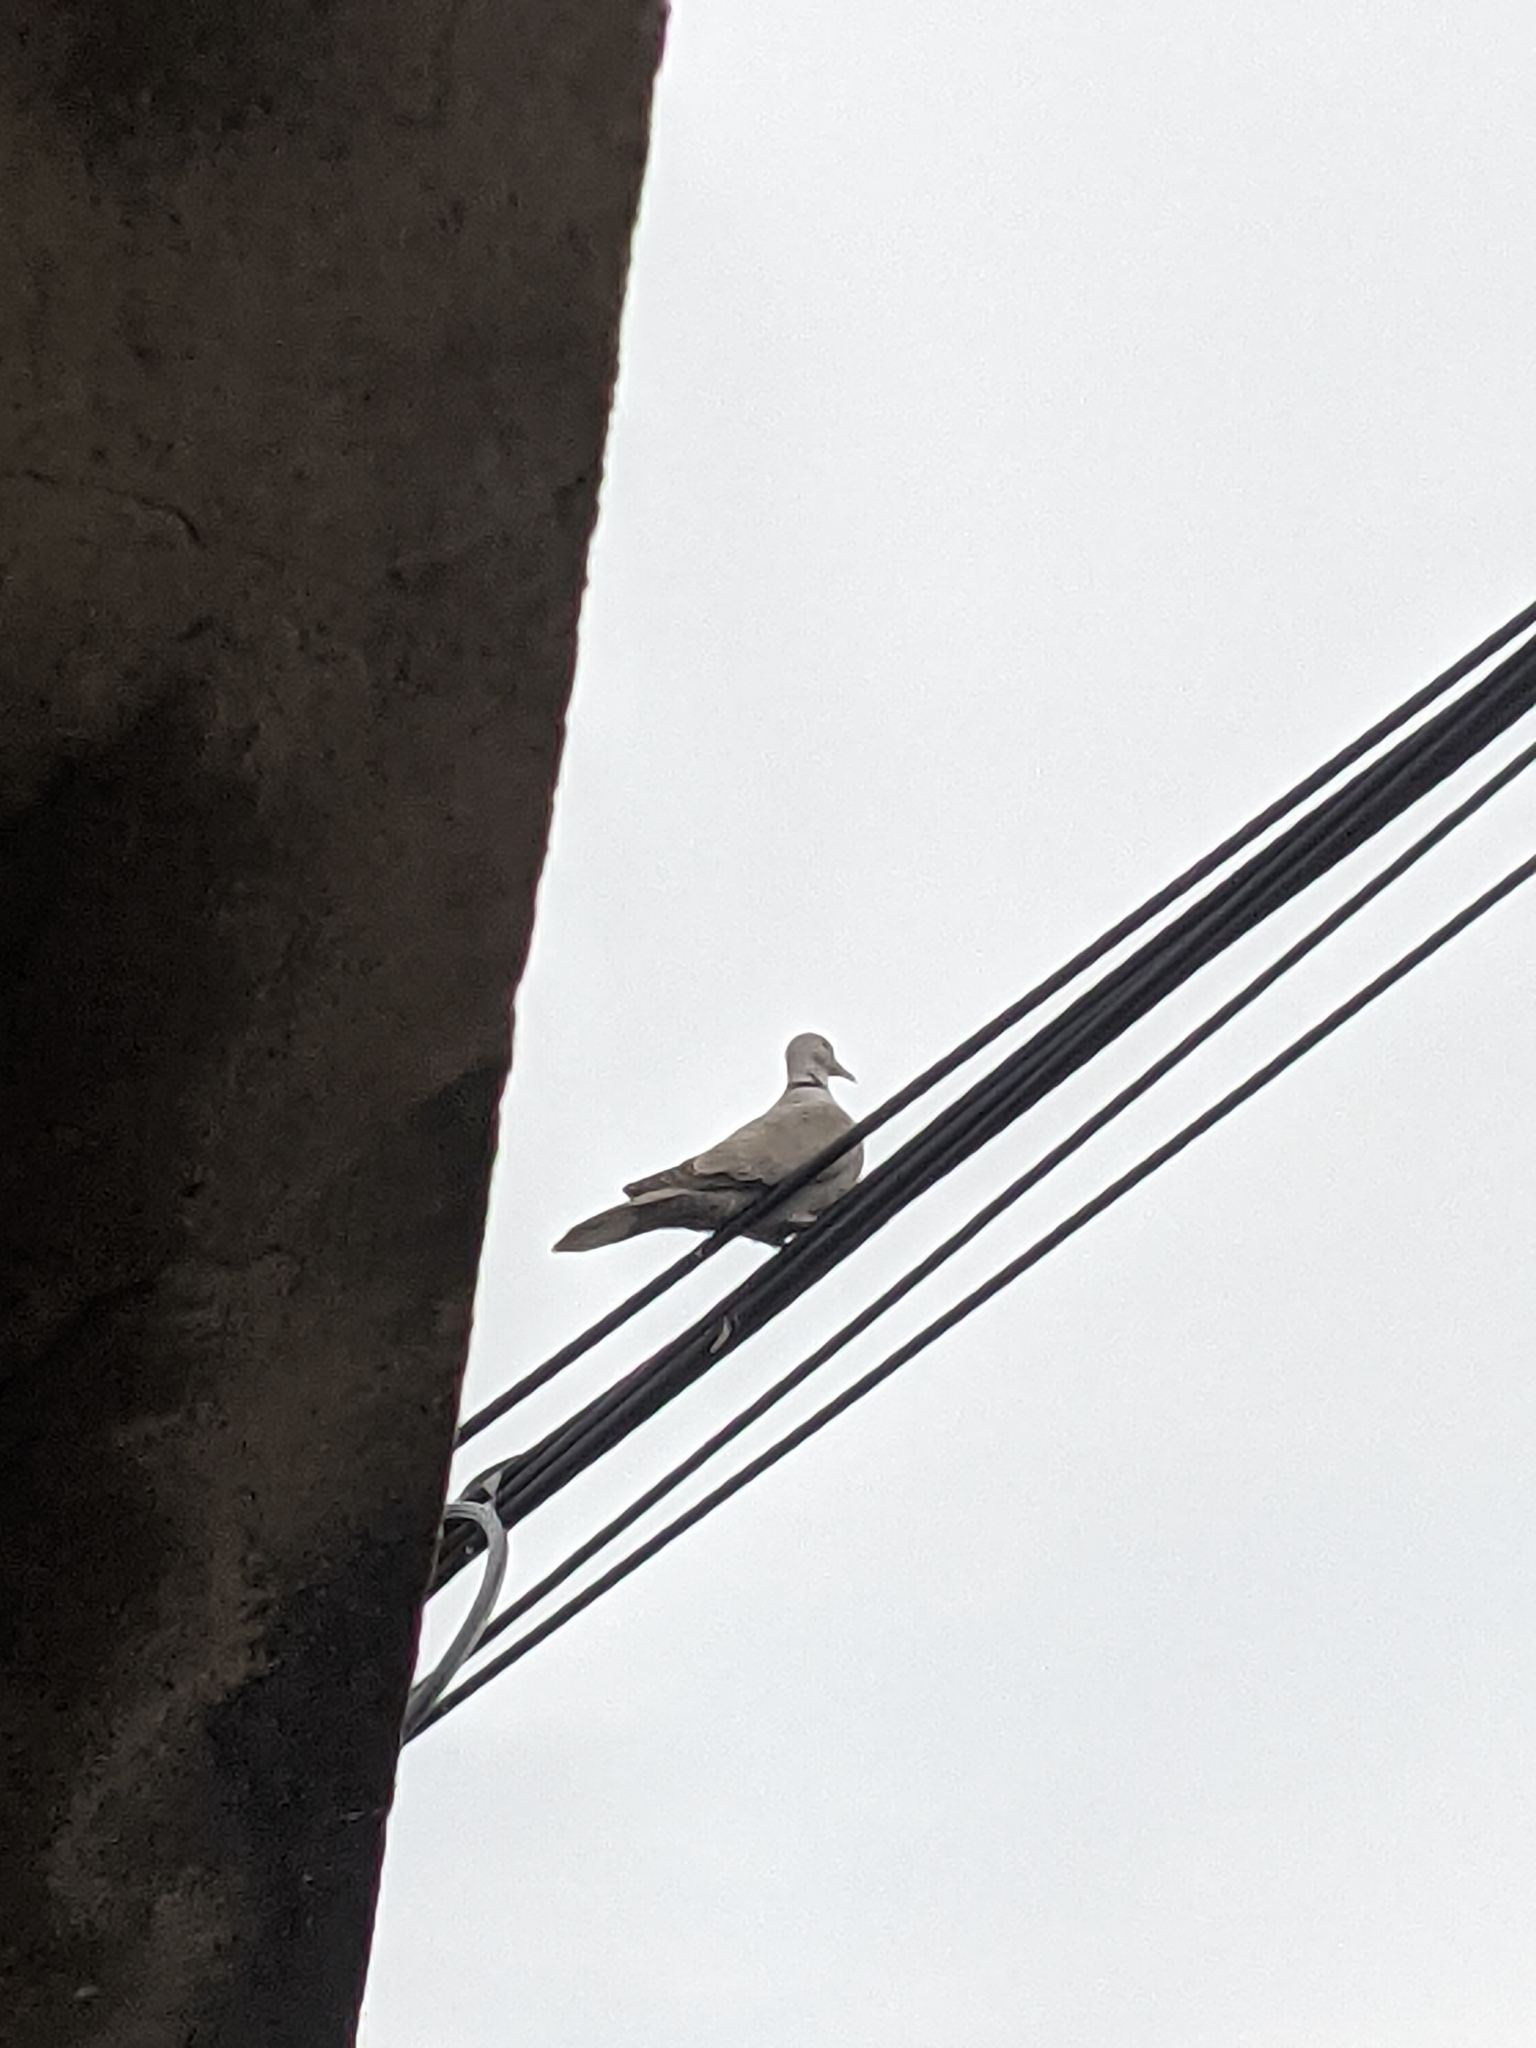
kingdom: Animalia
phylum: Chordata
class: Aves
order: Columbiformes
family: Columbidae
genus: Streptopelia
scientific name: Streptopelia decaocto
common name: Eurasian collared dove
